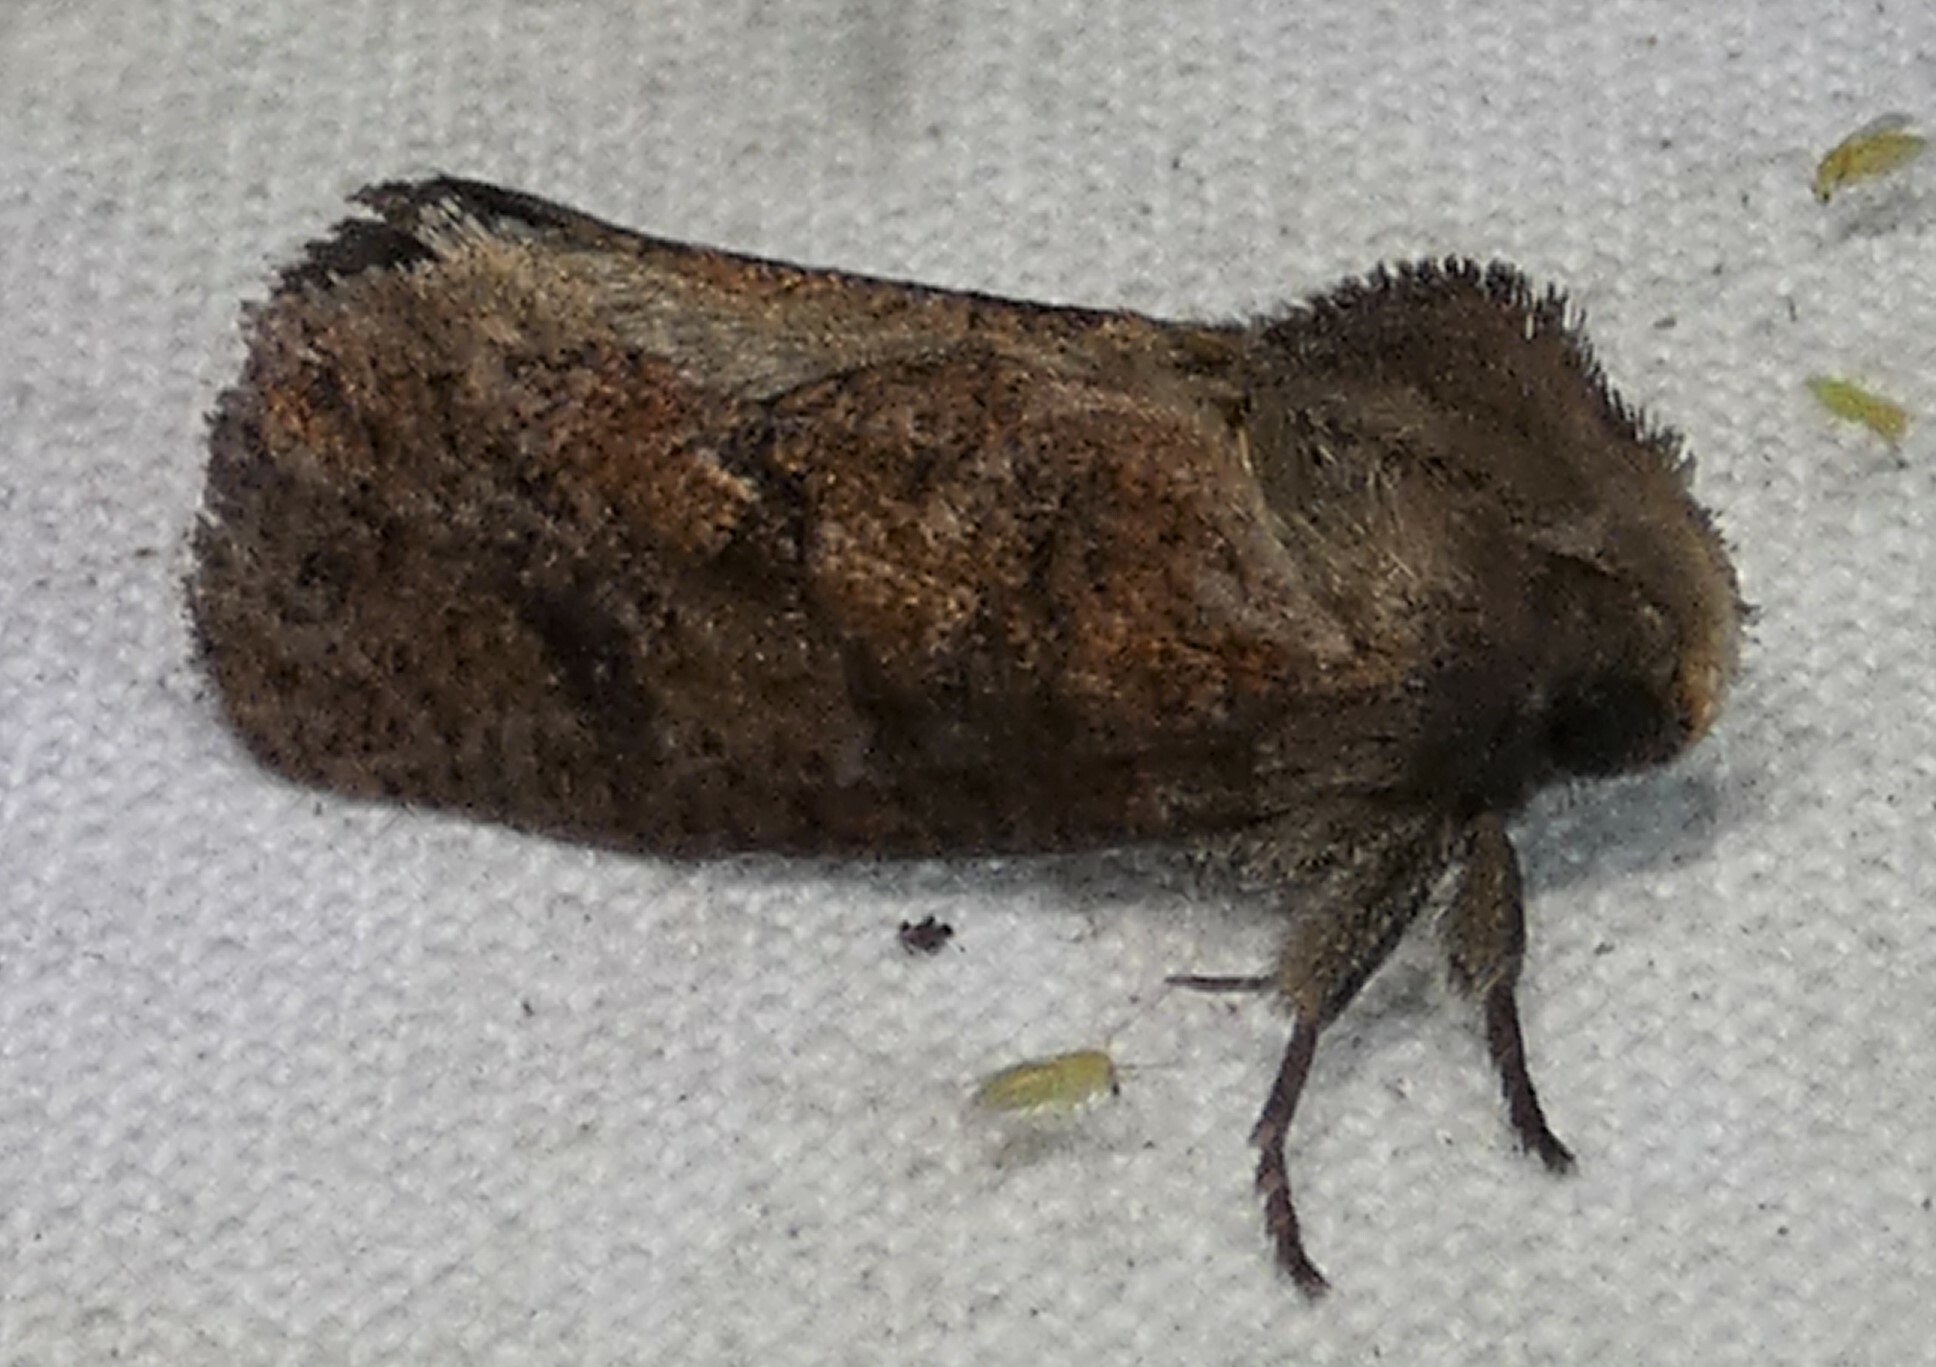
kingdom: Animalia
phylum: Arthropoda
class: Insecta
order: Lepidoptera
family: Tineidae
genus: Acrolophus
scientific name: Acrolophus plumifrontella
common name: Eastern grass tubeworm moth
